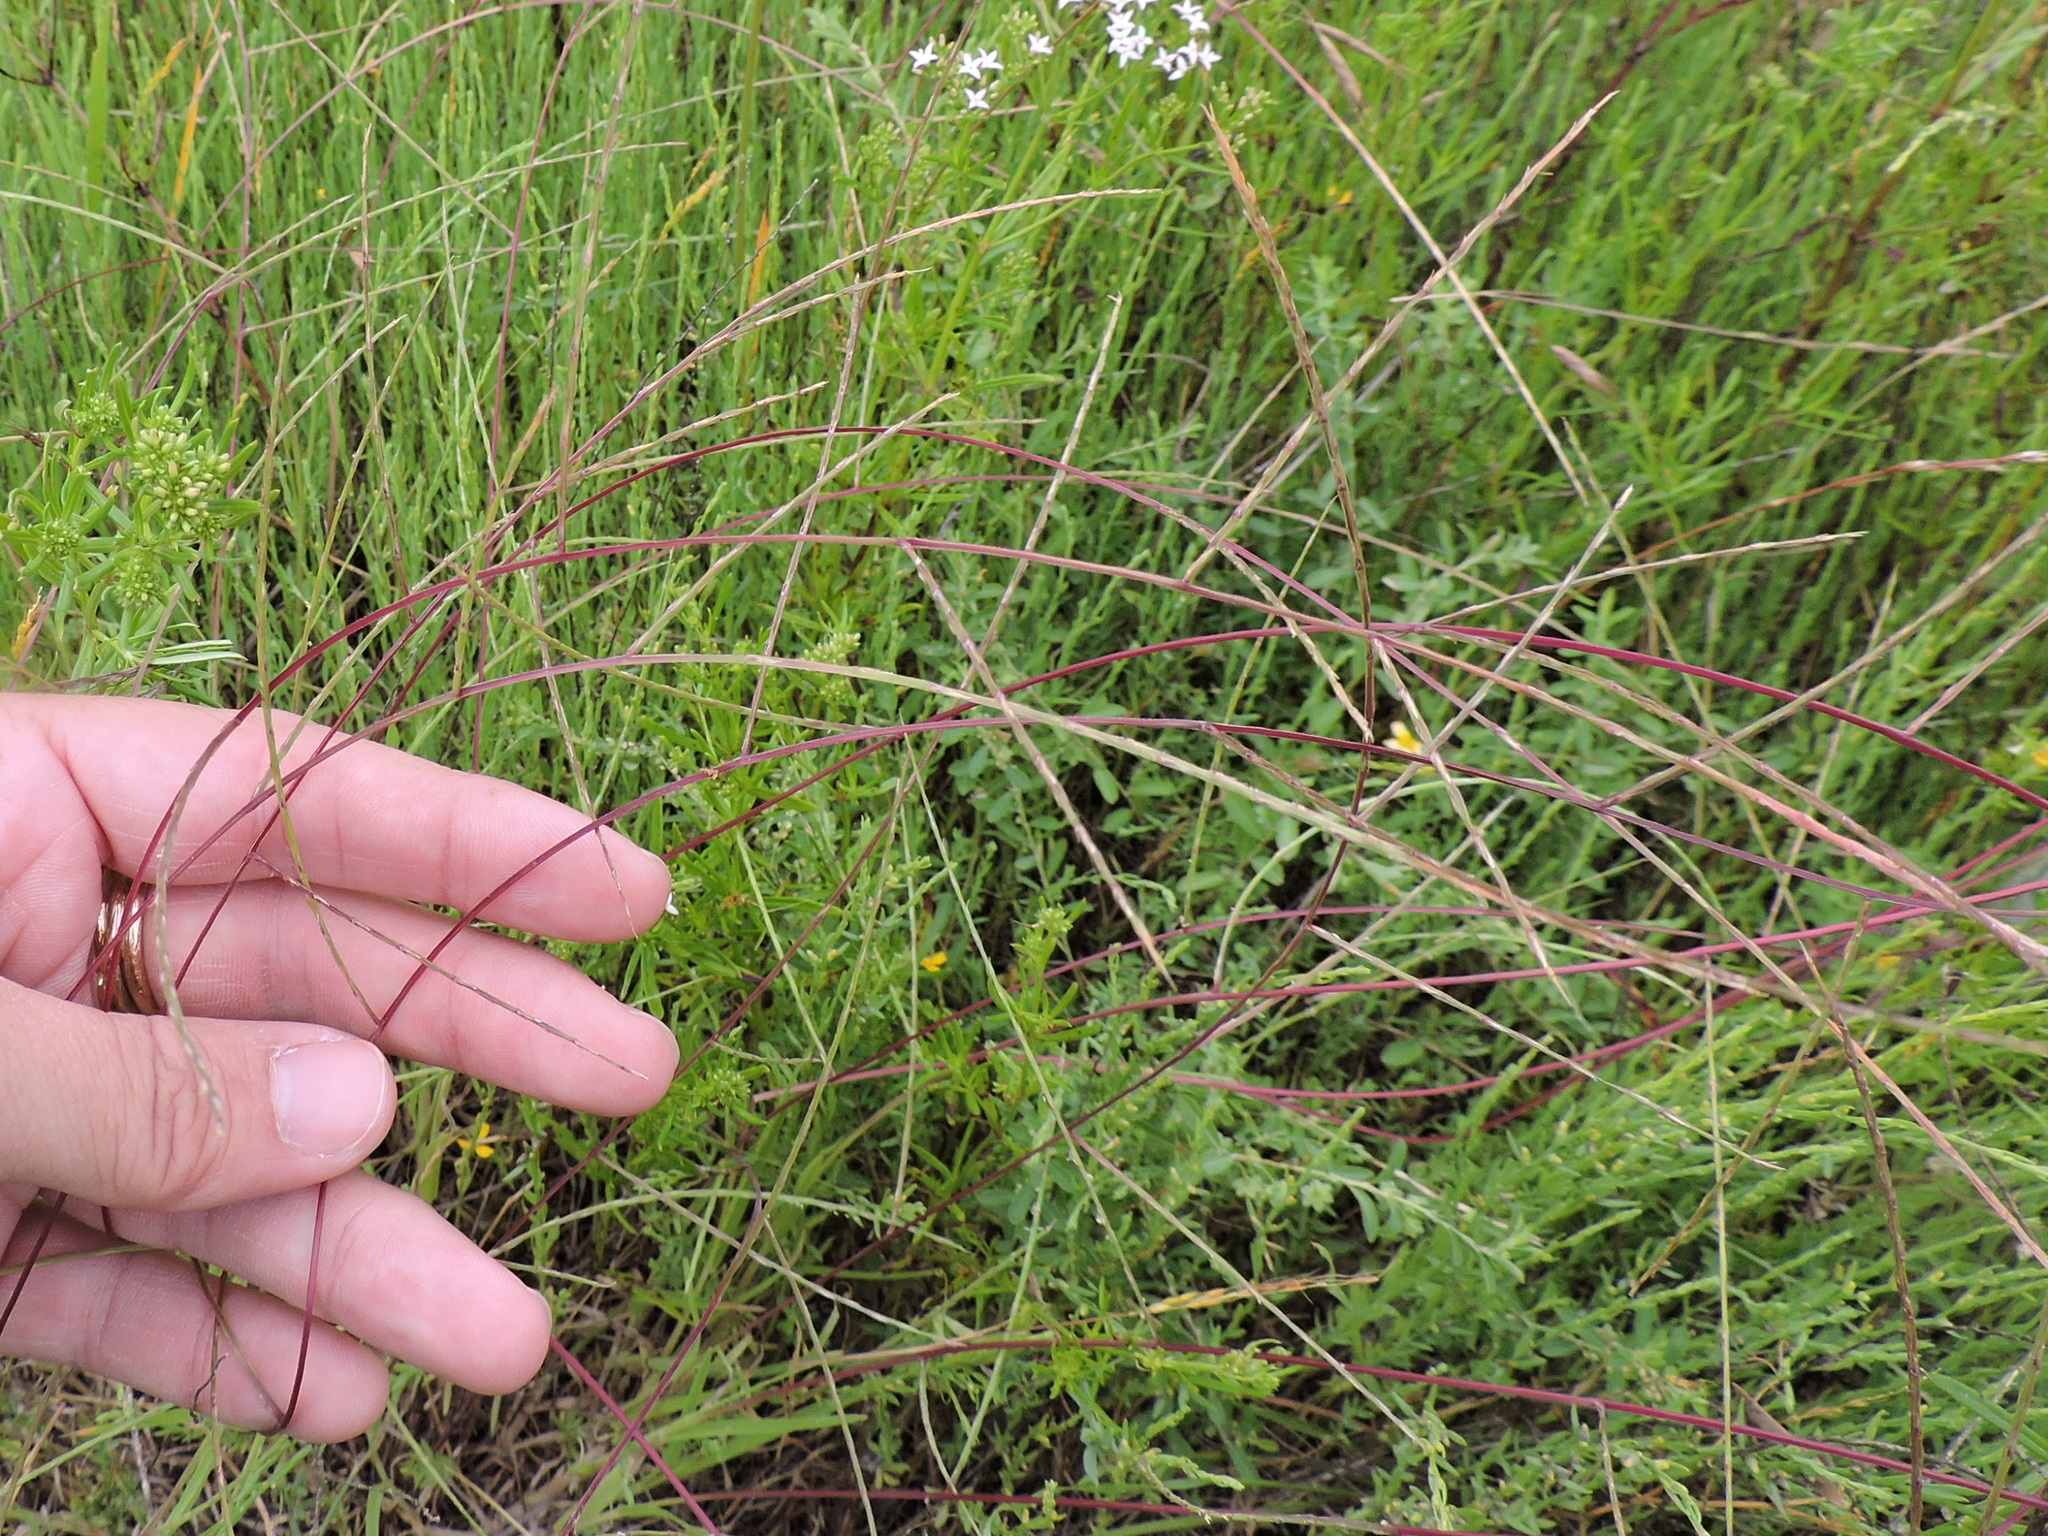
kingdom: Plantae
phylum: Tracheophyta
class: Liliopsida
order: Poales
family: Poaceae
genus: Muhlenbergia
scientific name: Muhlenbergia paniculata
